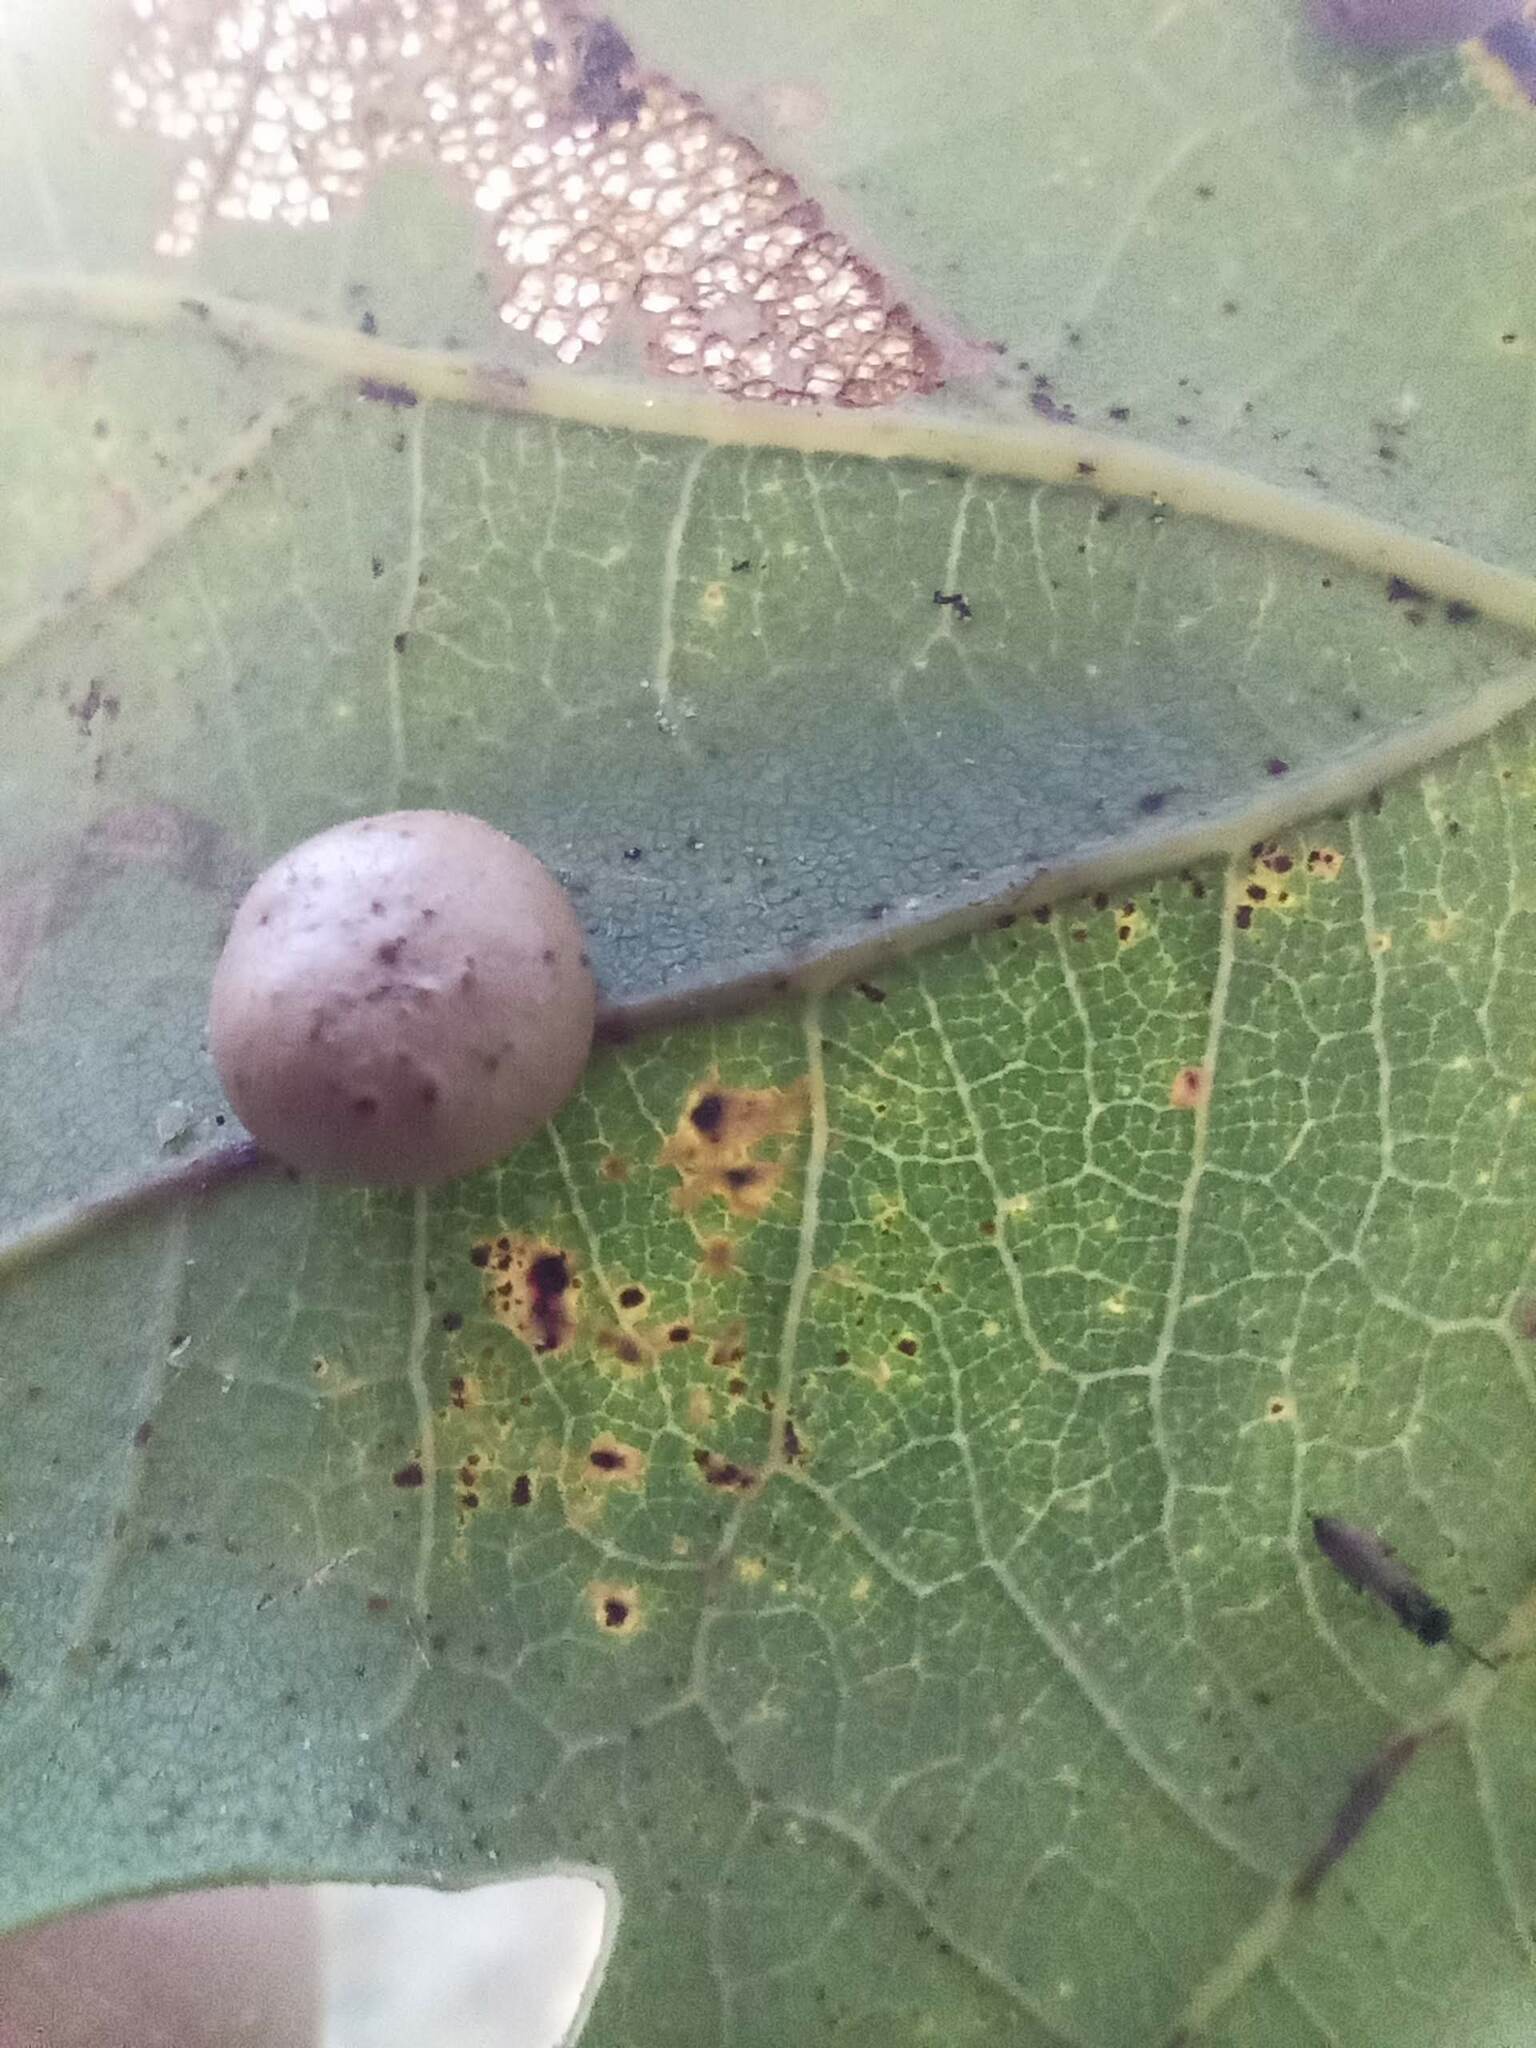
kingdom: Animalia
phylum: Arthropoda
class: Insecta
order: Hymenoptera
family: Cynipidae
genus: Cynips
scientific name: Cynips divisa
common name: Red currant gall
